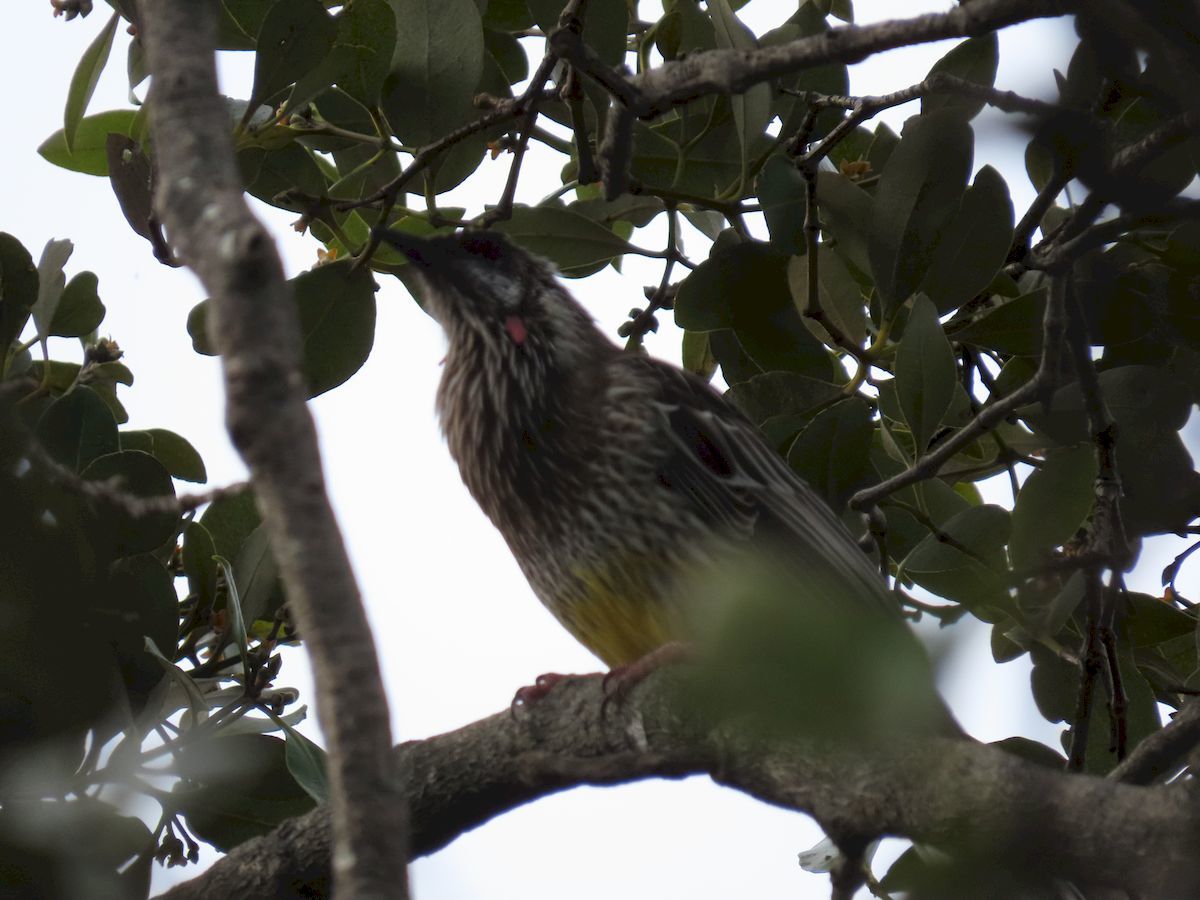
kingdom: Animalia
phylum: Chordata
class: Aves
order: Passeriformes
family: Meliphagidae
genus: Anthochaera
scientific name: Anthochaera carunculata
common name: Red wattlebird
